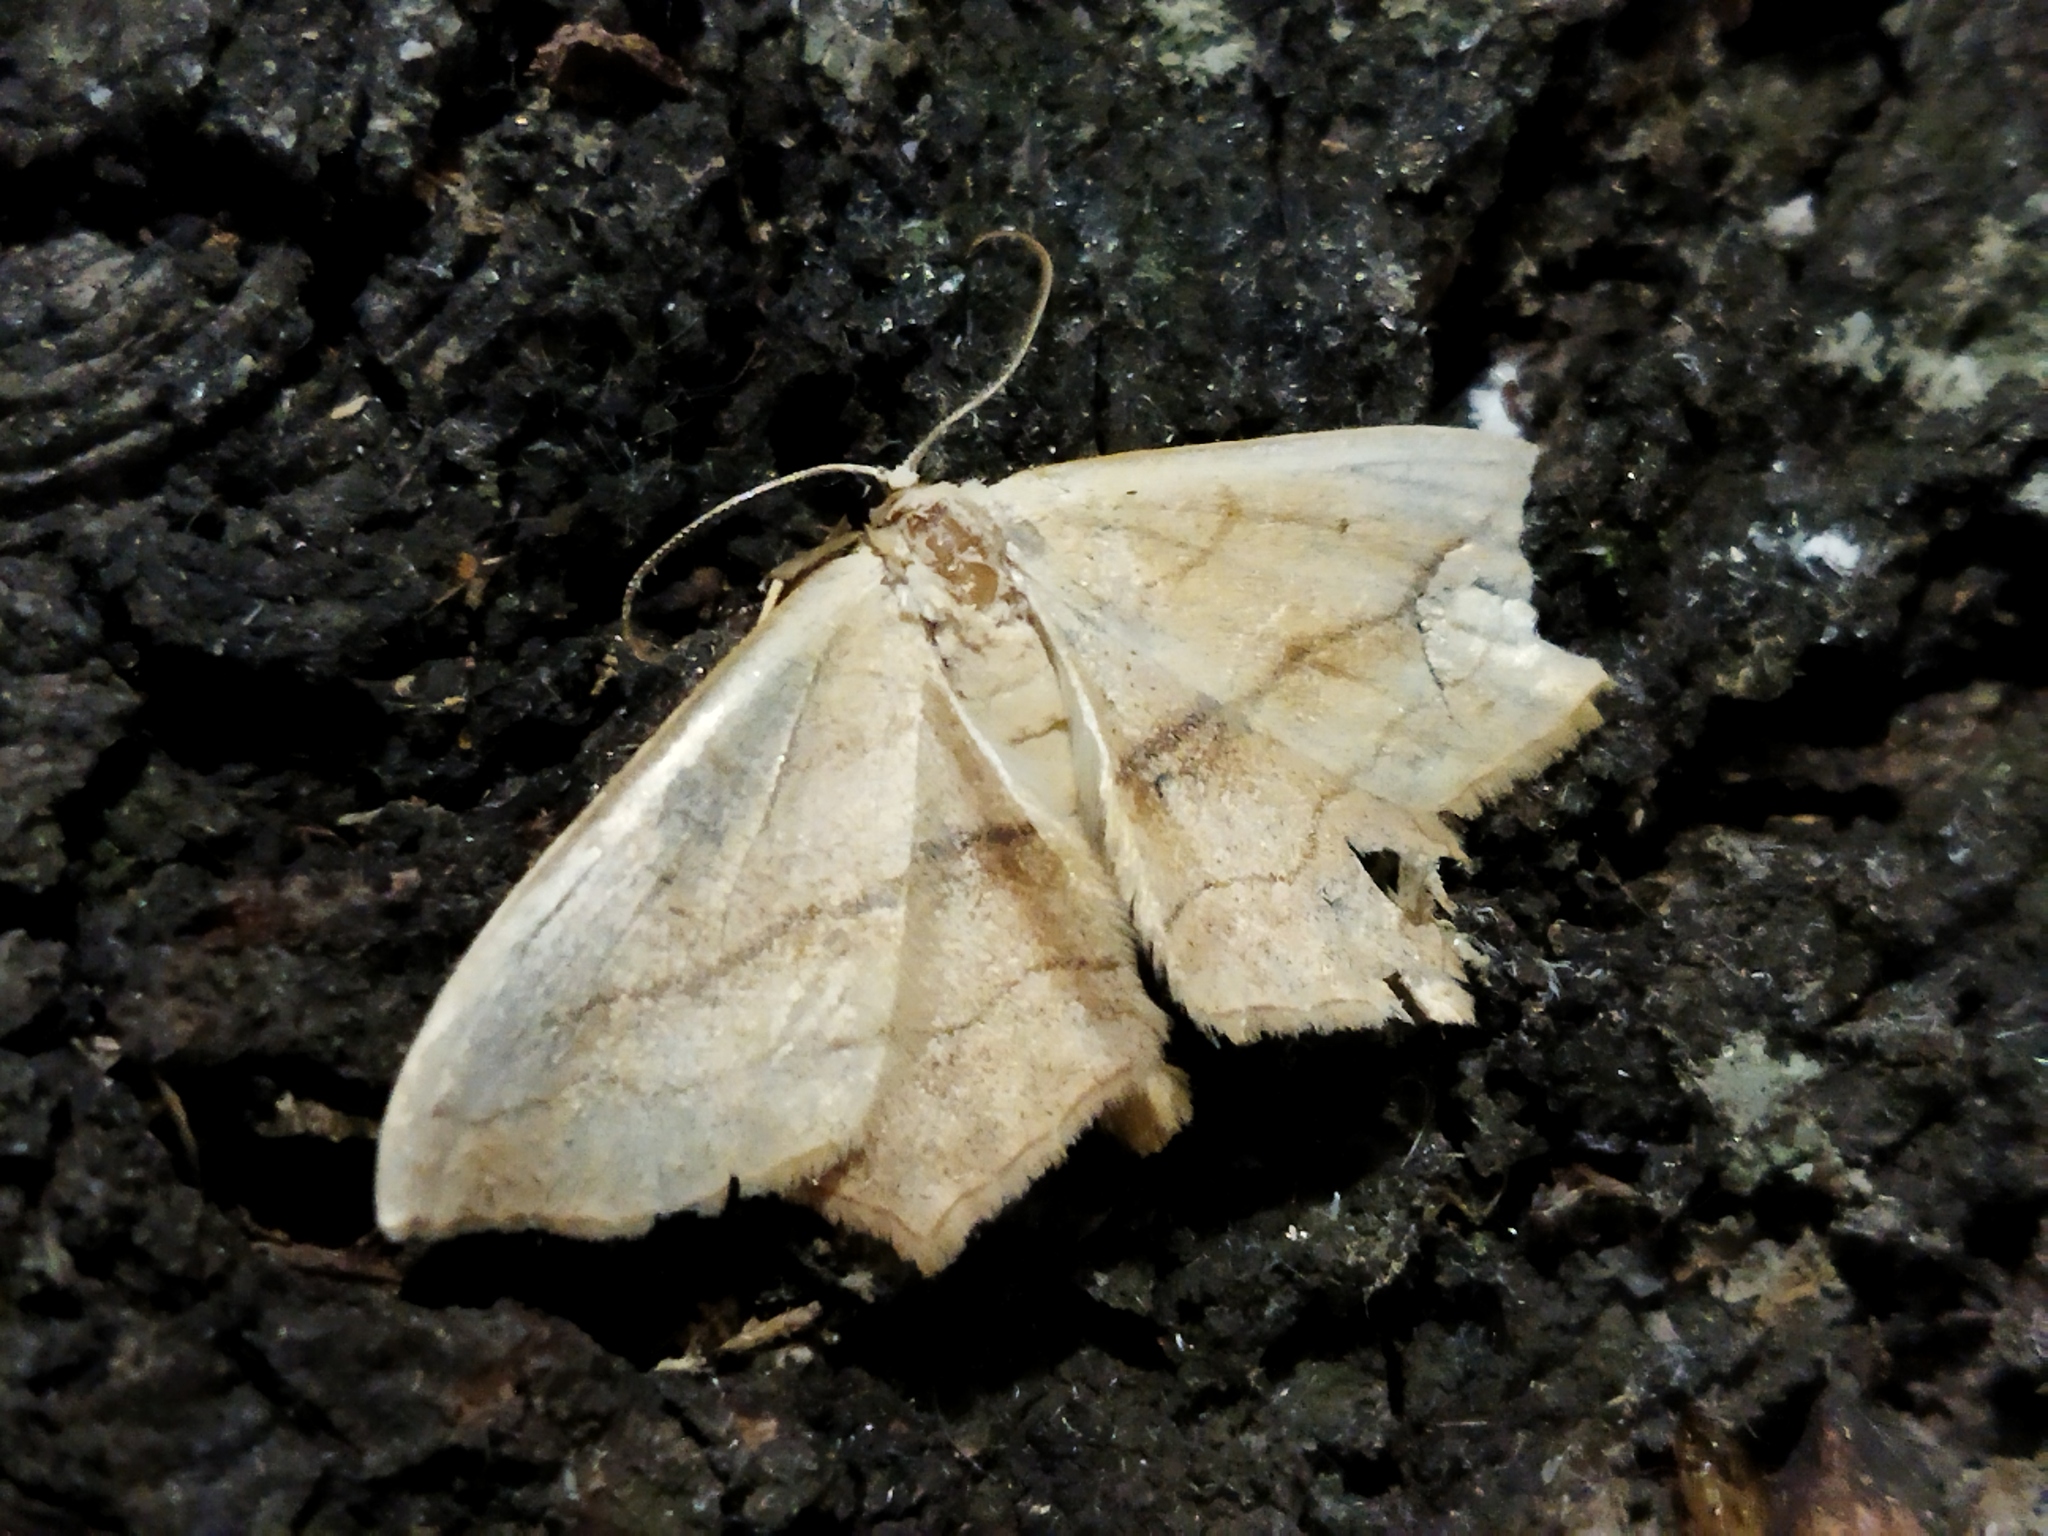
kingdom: Animalia
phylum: Arthropoda
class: Insecta
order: Lepidoptera
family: Geometridae
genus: Scopula
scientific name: Scopula imitaria
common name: Small blood-vein
